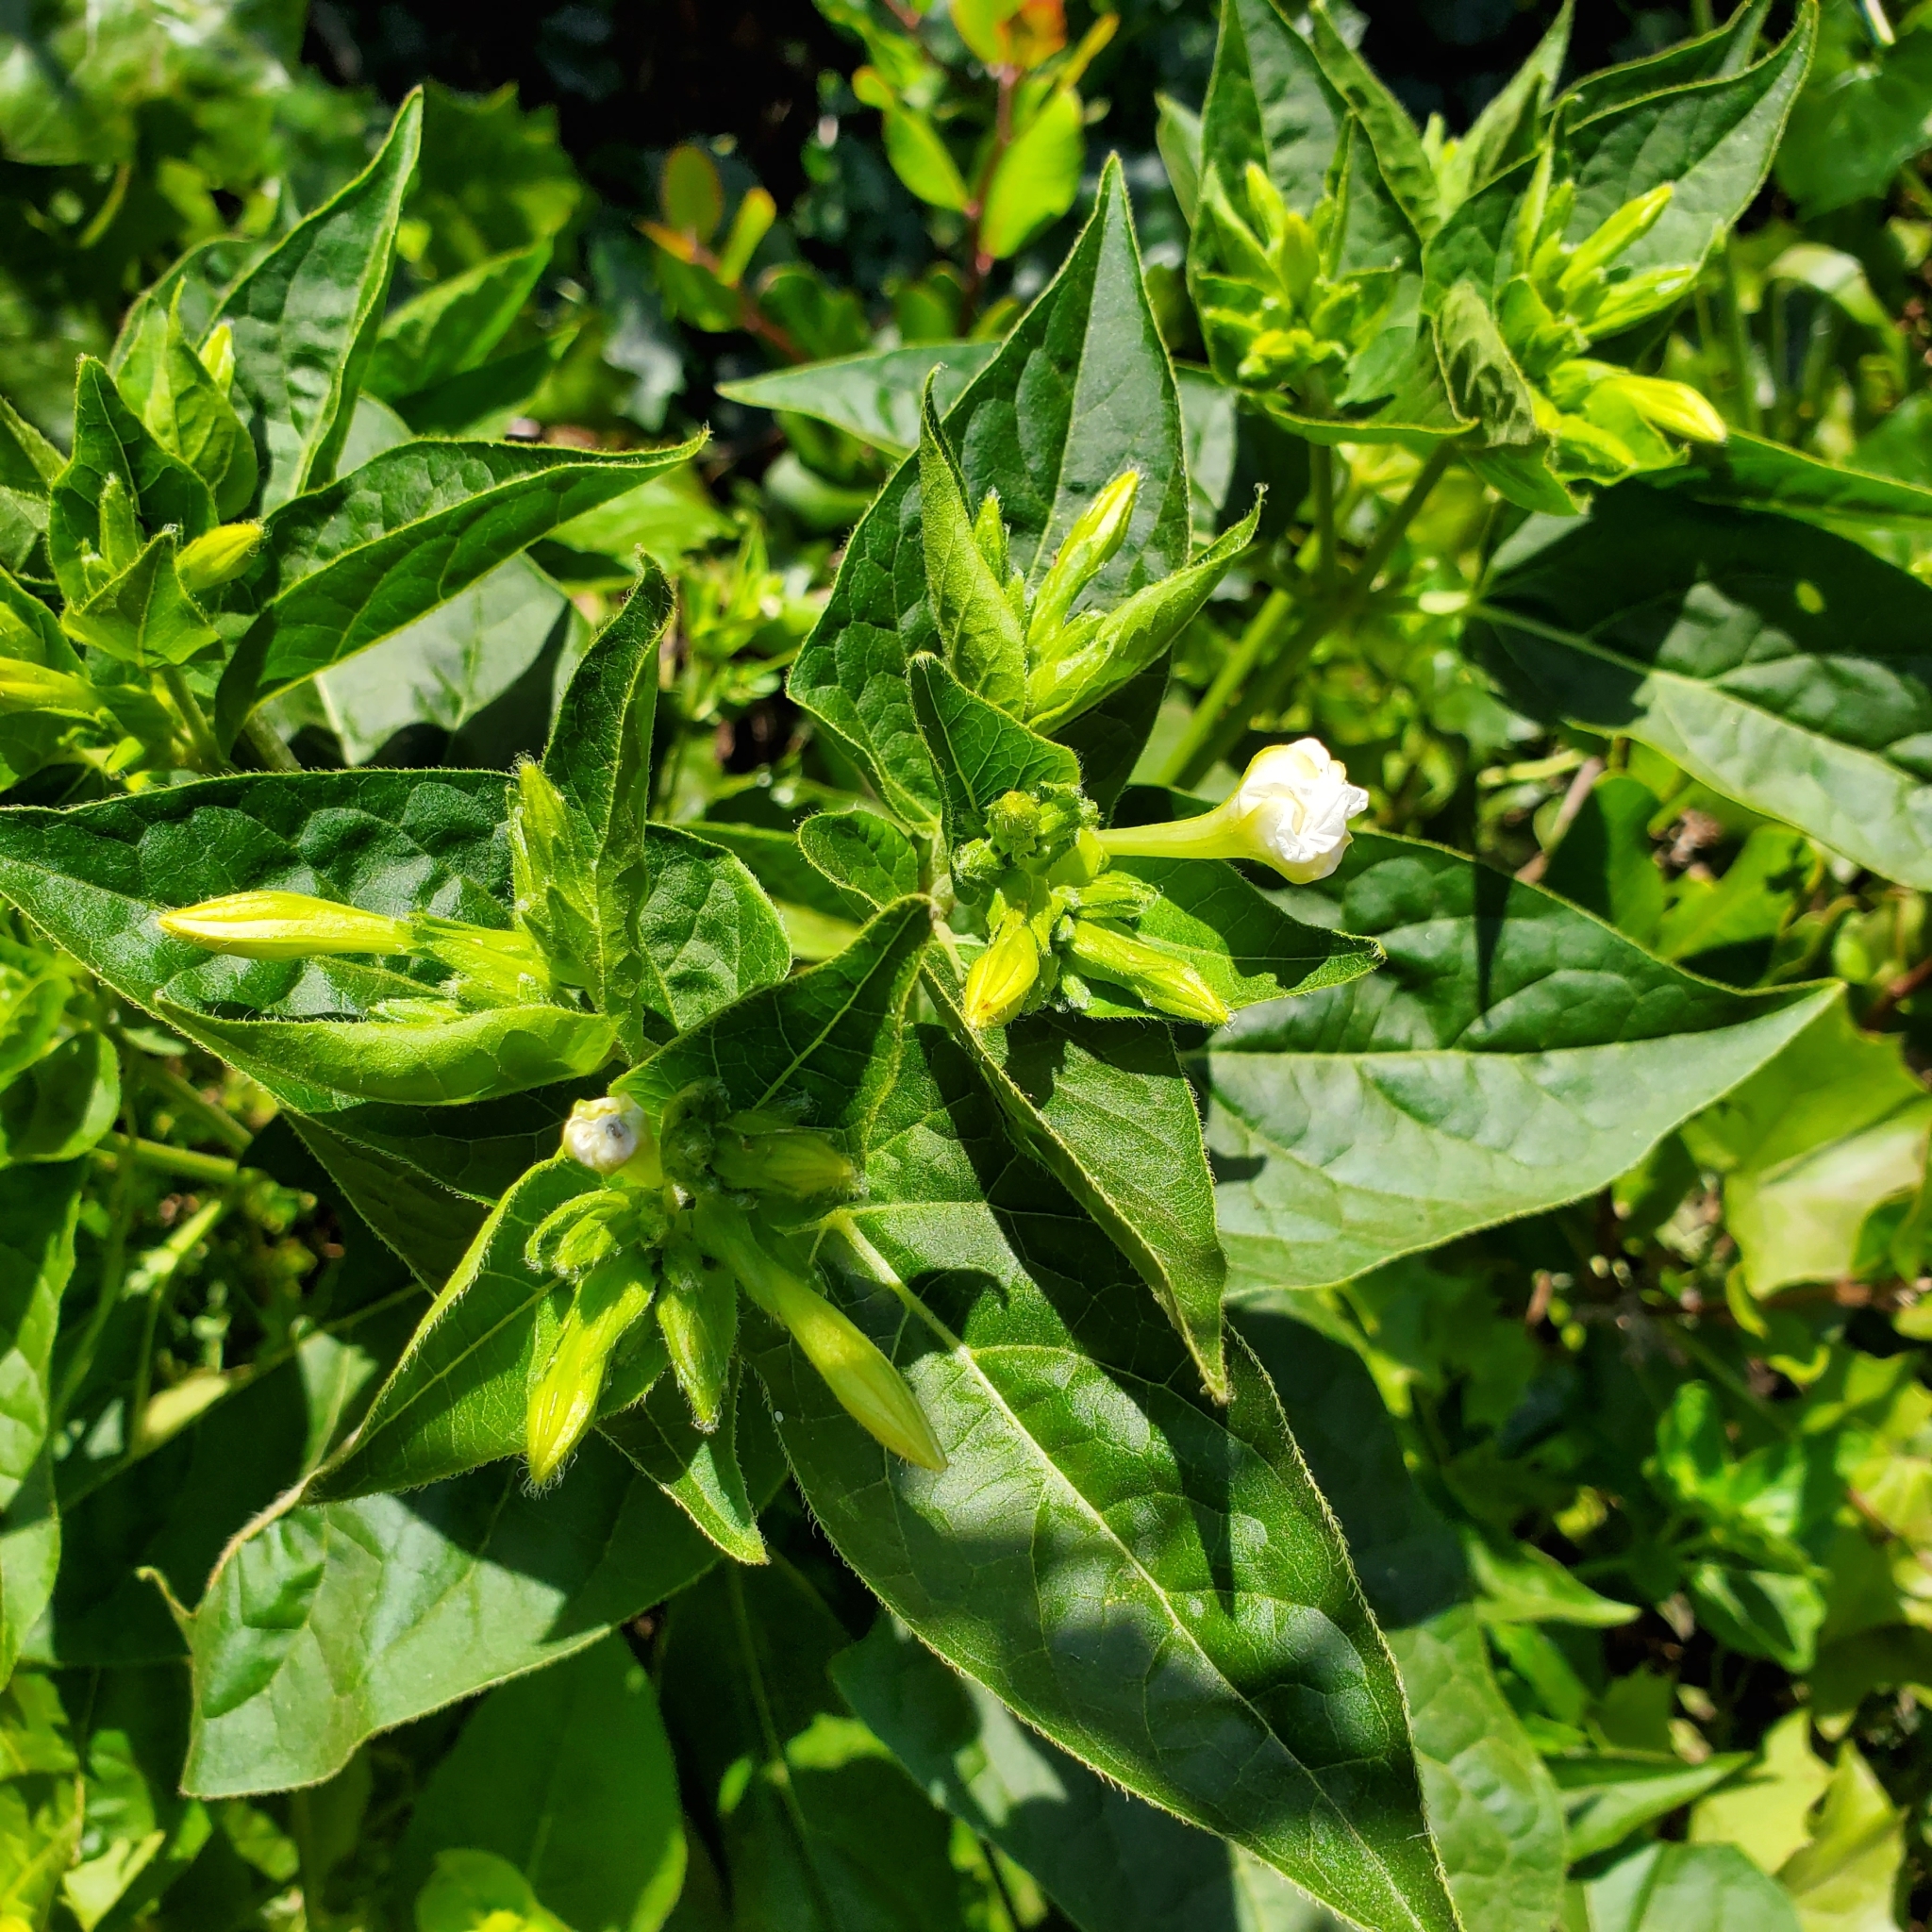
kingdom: Plantae
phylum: Tracheophyta
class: Magnoliopsida
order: Caryophyllales
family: Nyctaginaceae
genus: Mirabilis
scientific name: Mirabilis jalapa
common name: Marvel-of-peru
